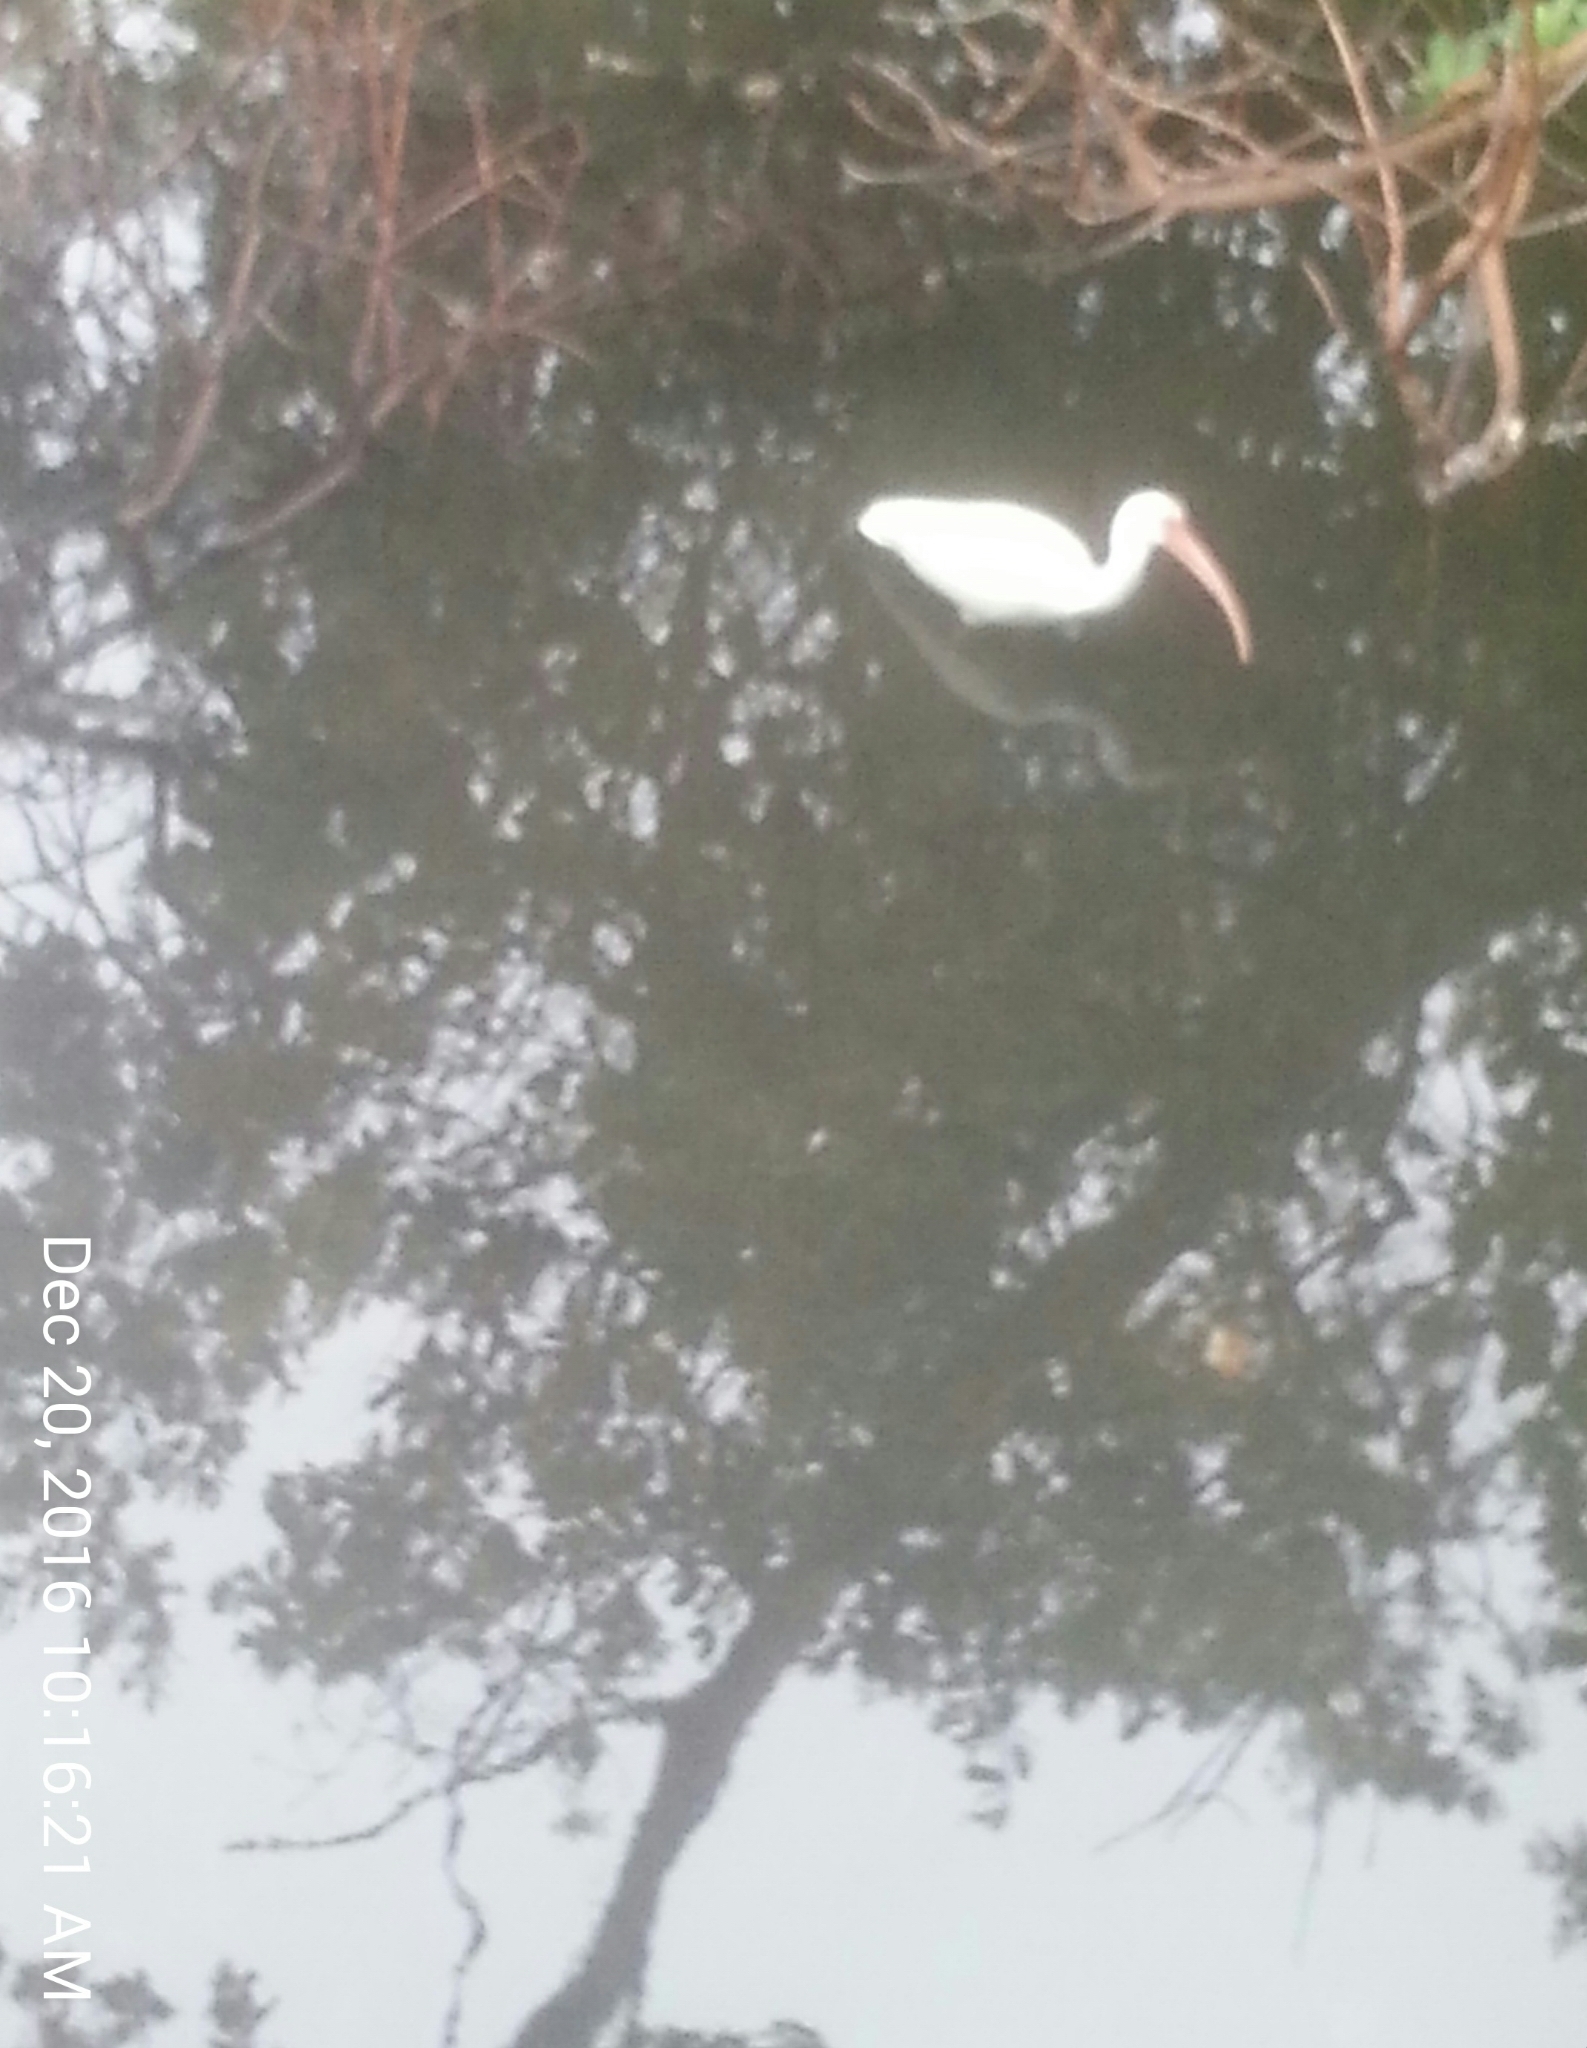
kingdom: Animalia
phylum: Chordata
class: Aves
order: Pelecaniformes
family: Threskiornithidae
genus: Eudocimus
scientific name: Eudocimus albus
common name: White ibis
